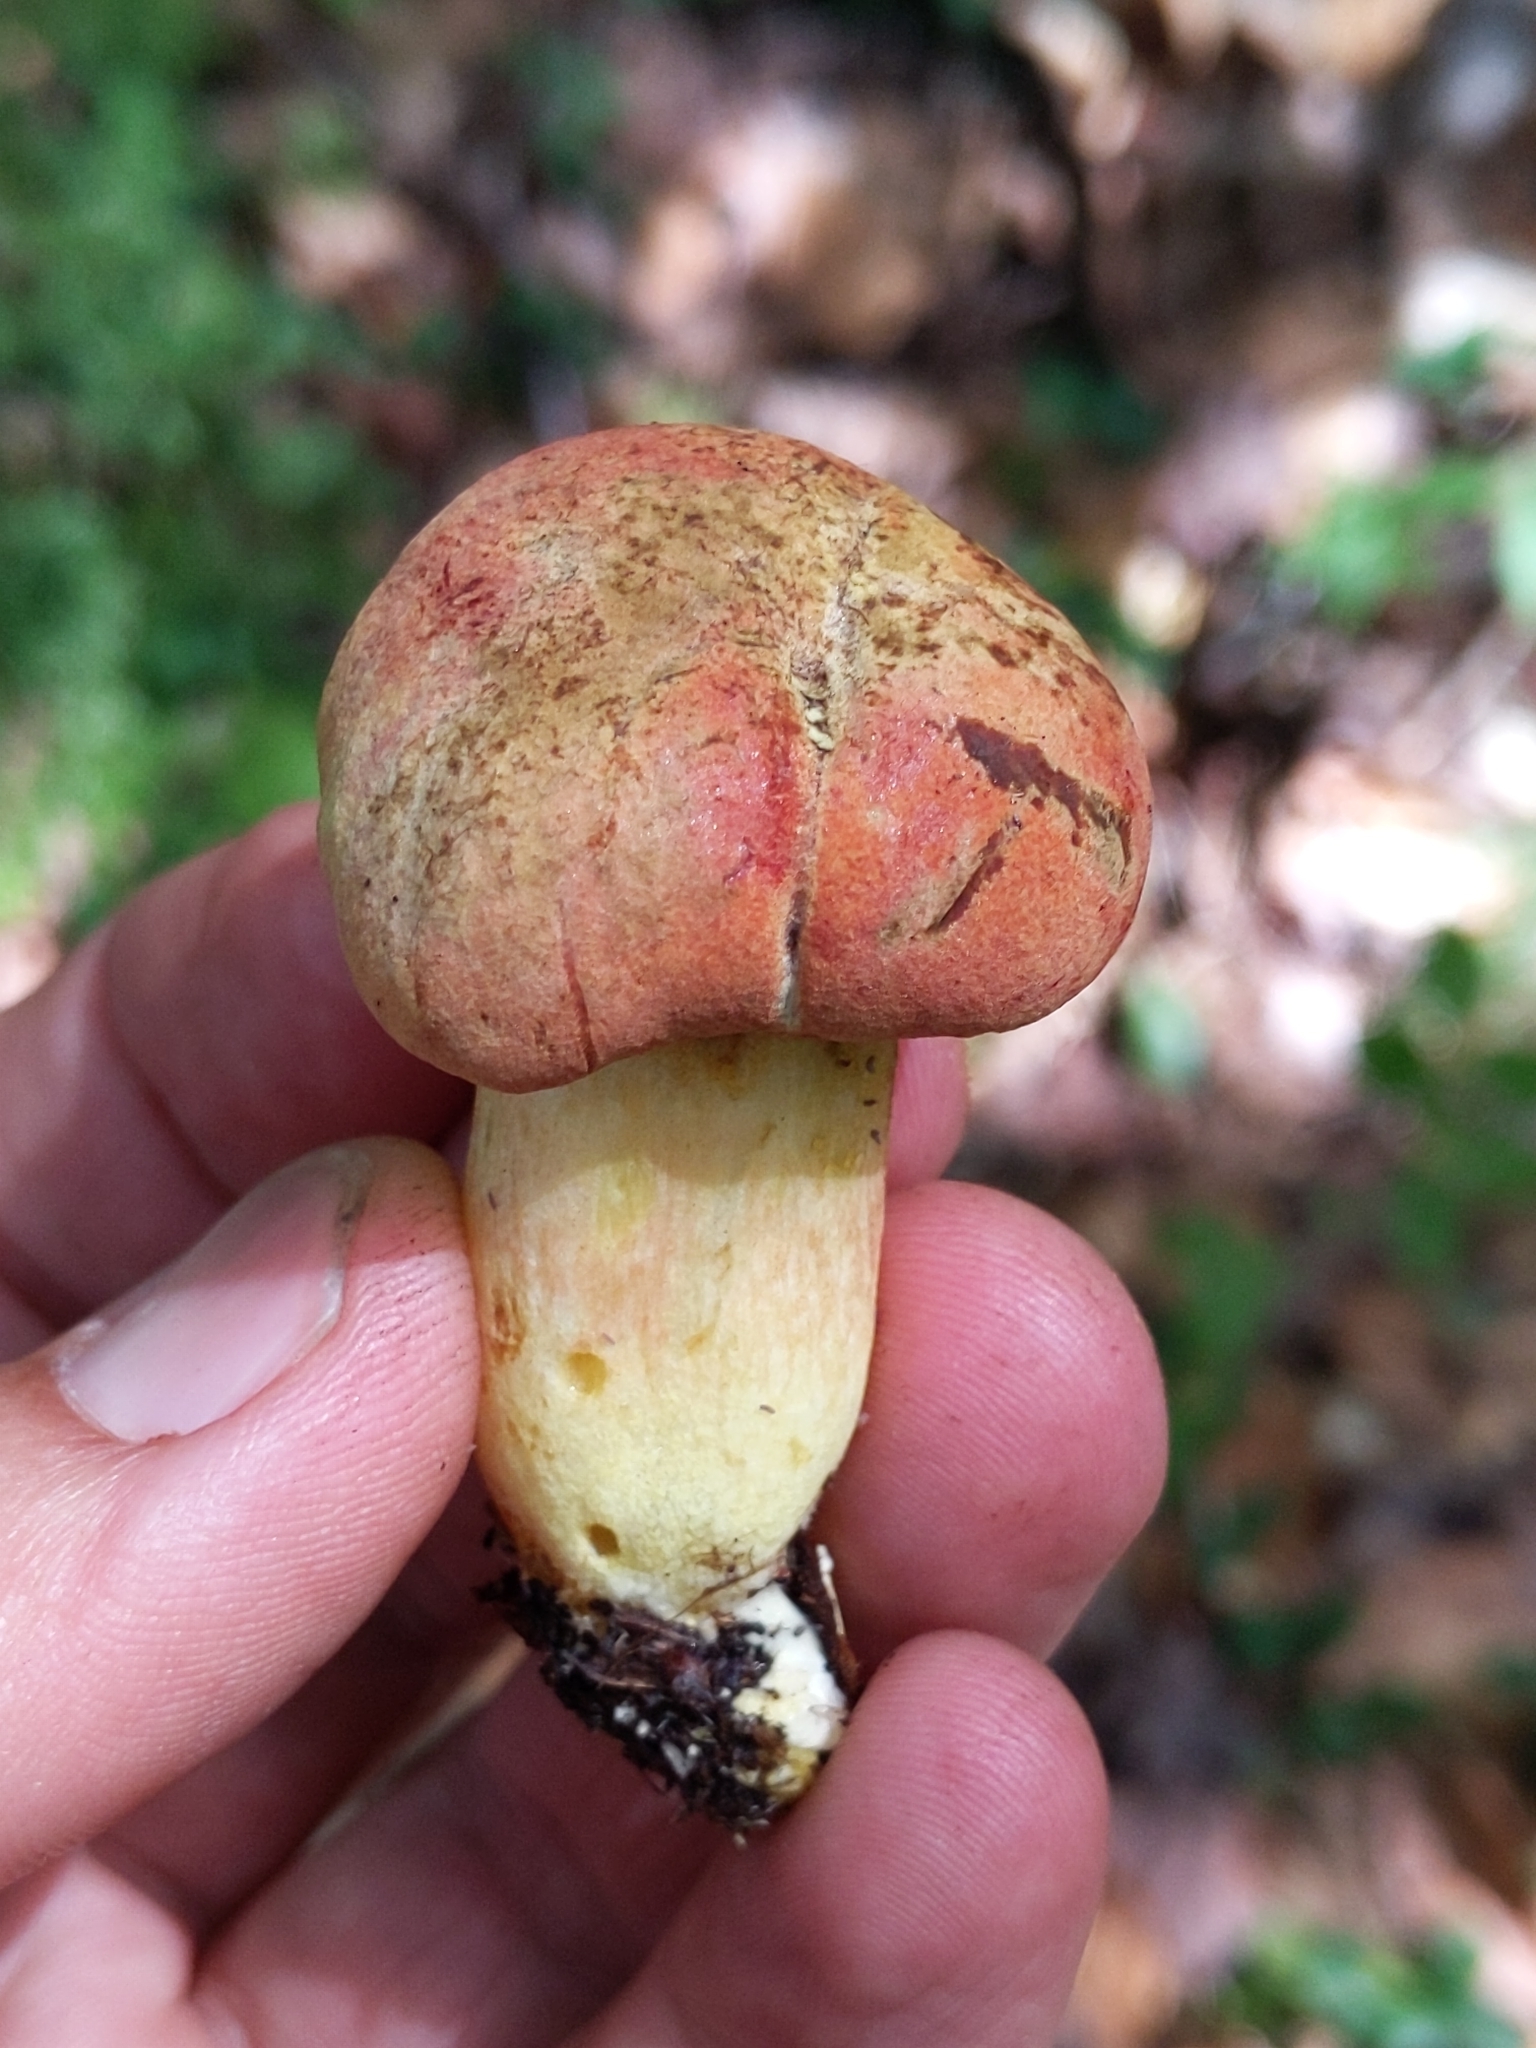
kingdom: Fungi
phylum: Basidiomycota
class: Agaricomycetes
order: Boletales
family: Boletaceae
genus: Boletus
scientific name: Boletus
